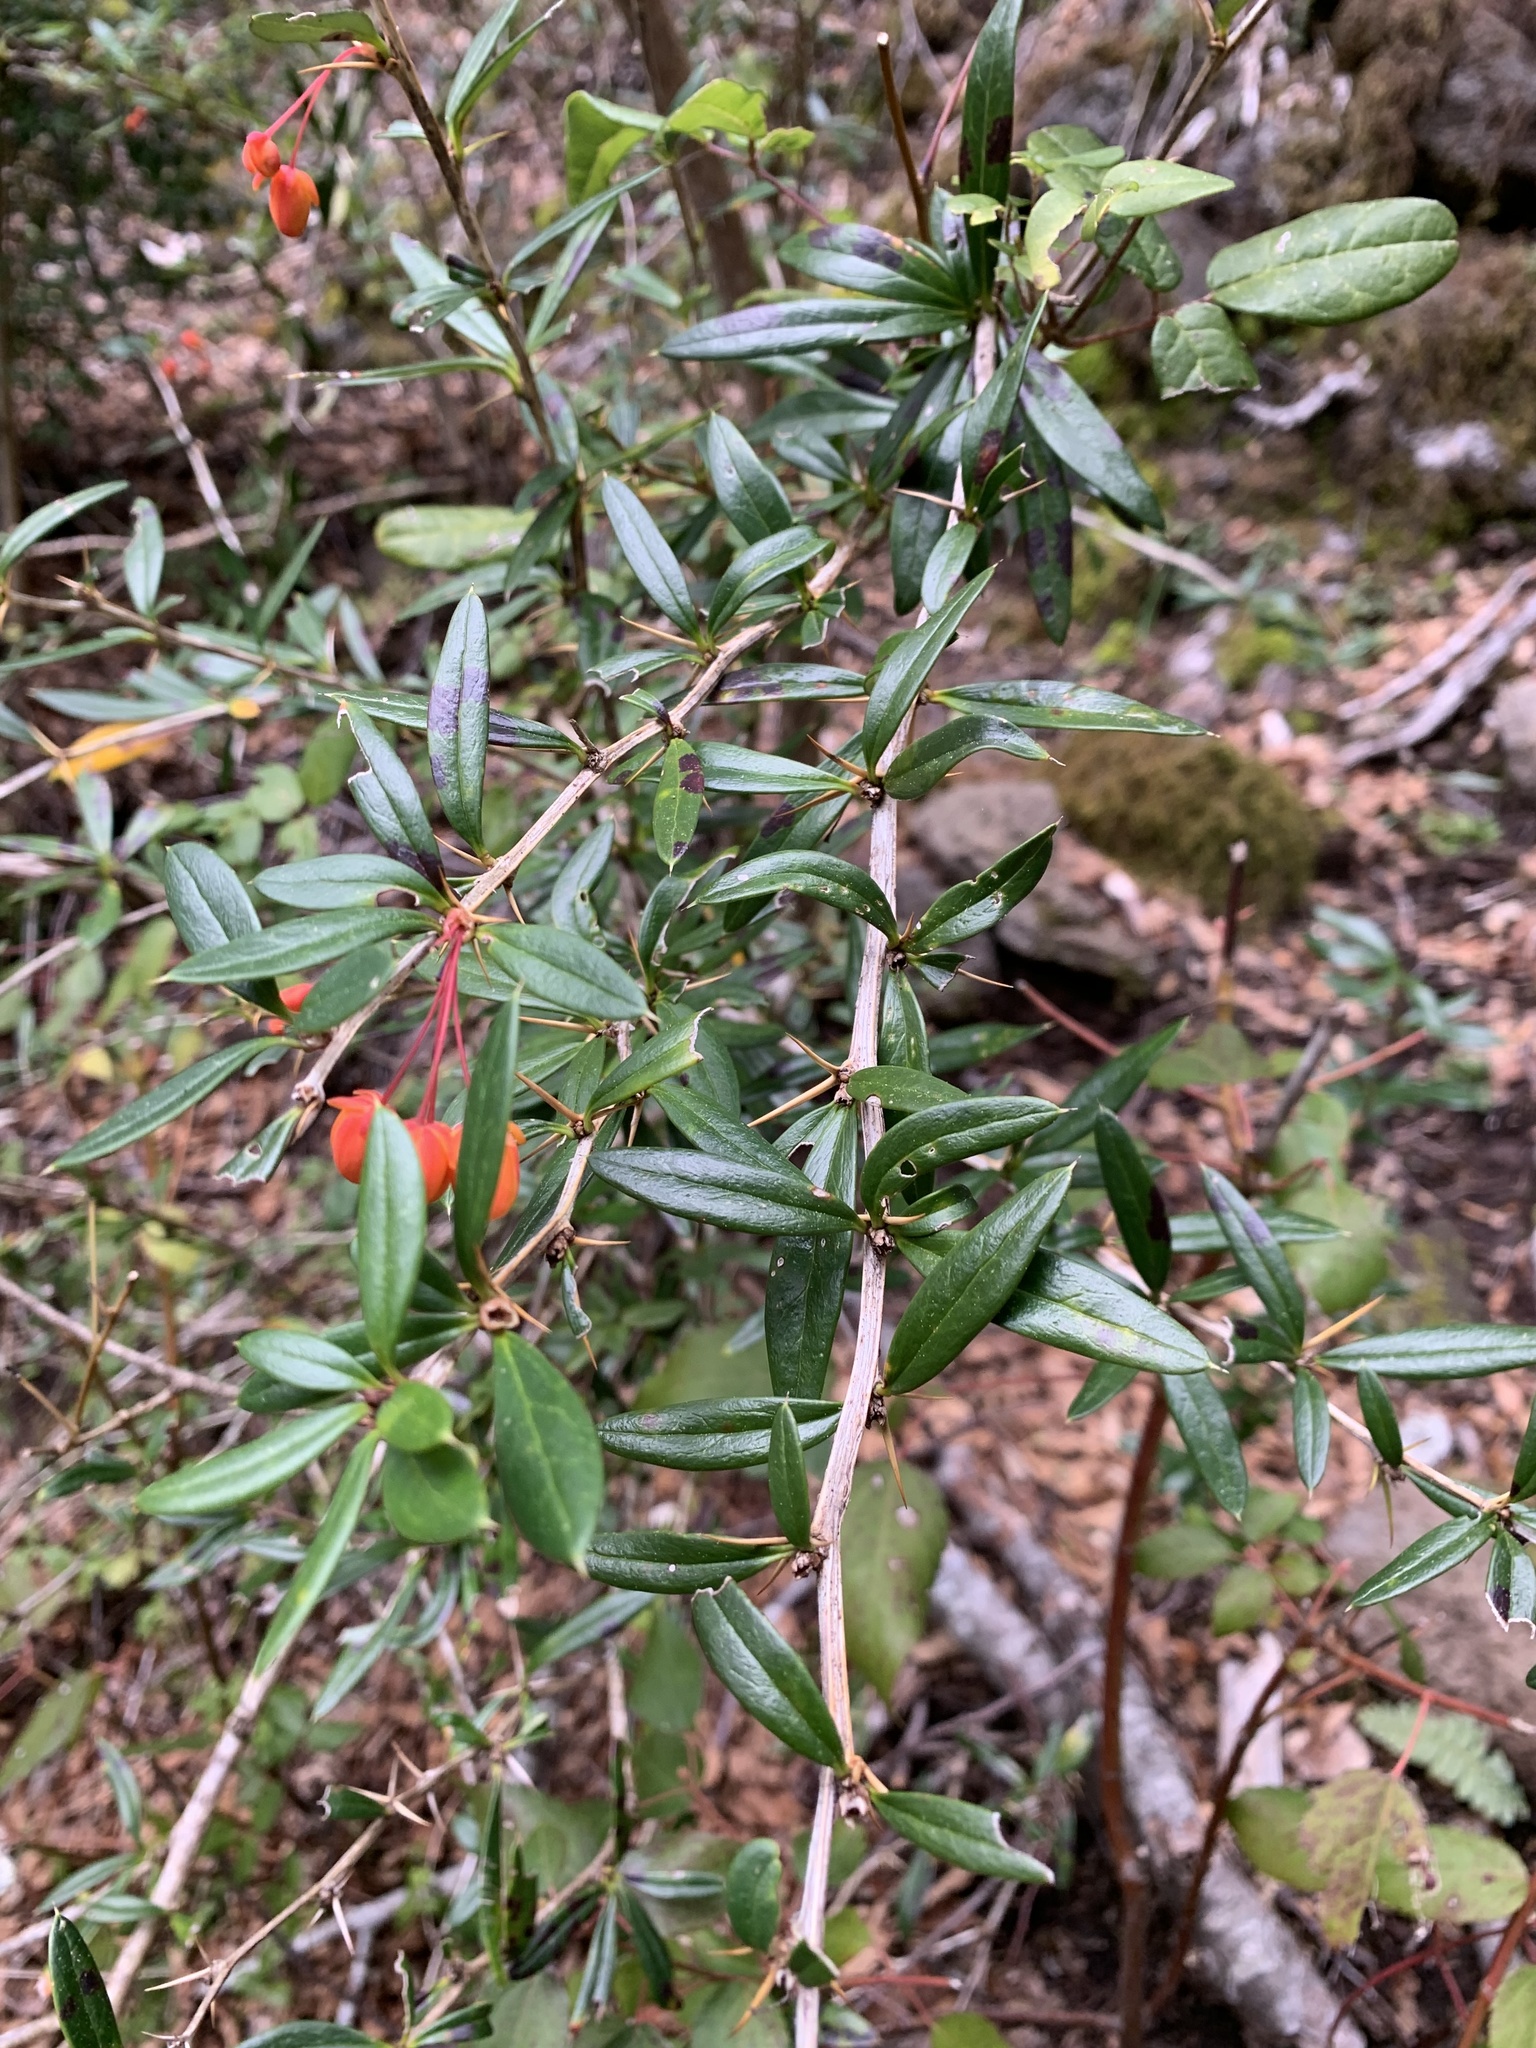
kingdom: Plantae
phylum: Tracheophyta
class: Magnoliopsida
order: Ranunculales
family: Berberidaceae
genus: Berberis
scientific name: Berberis trigona
